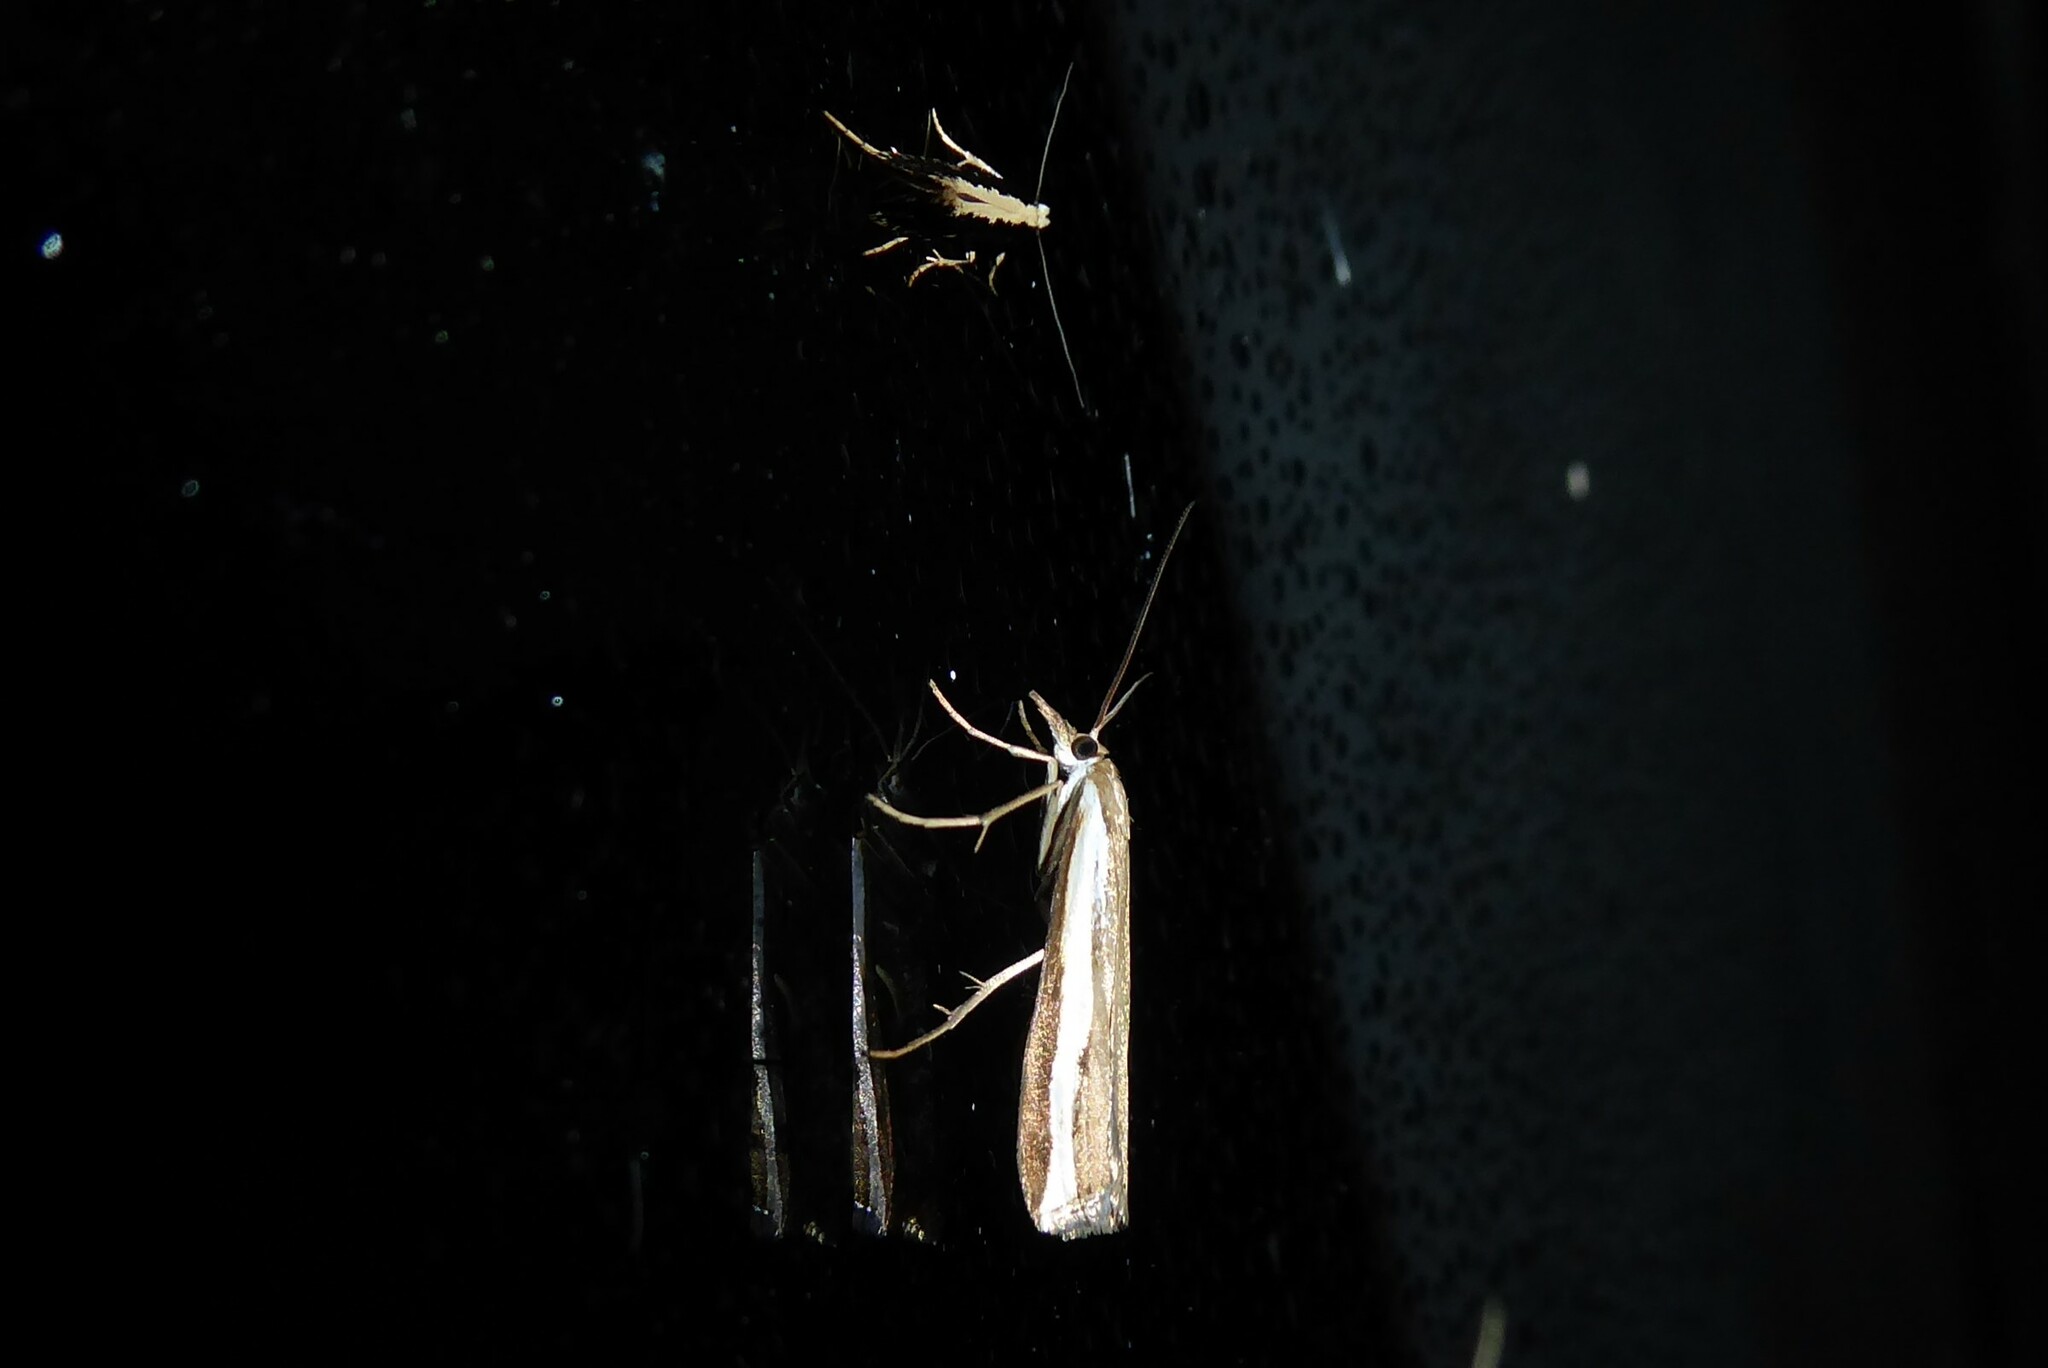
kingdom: Animalia
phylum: Arthropoda
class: Insecta
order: Lepidoptera
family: Crambidae
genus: Orocrambus
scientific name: Orocrambus flexuosellus
